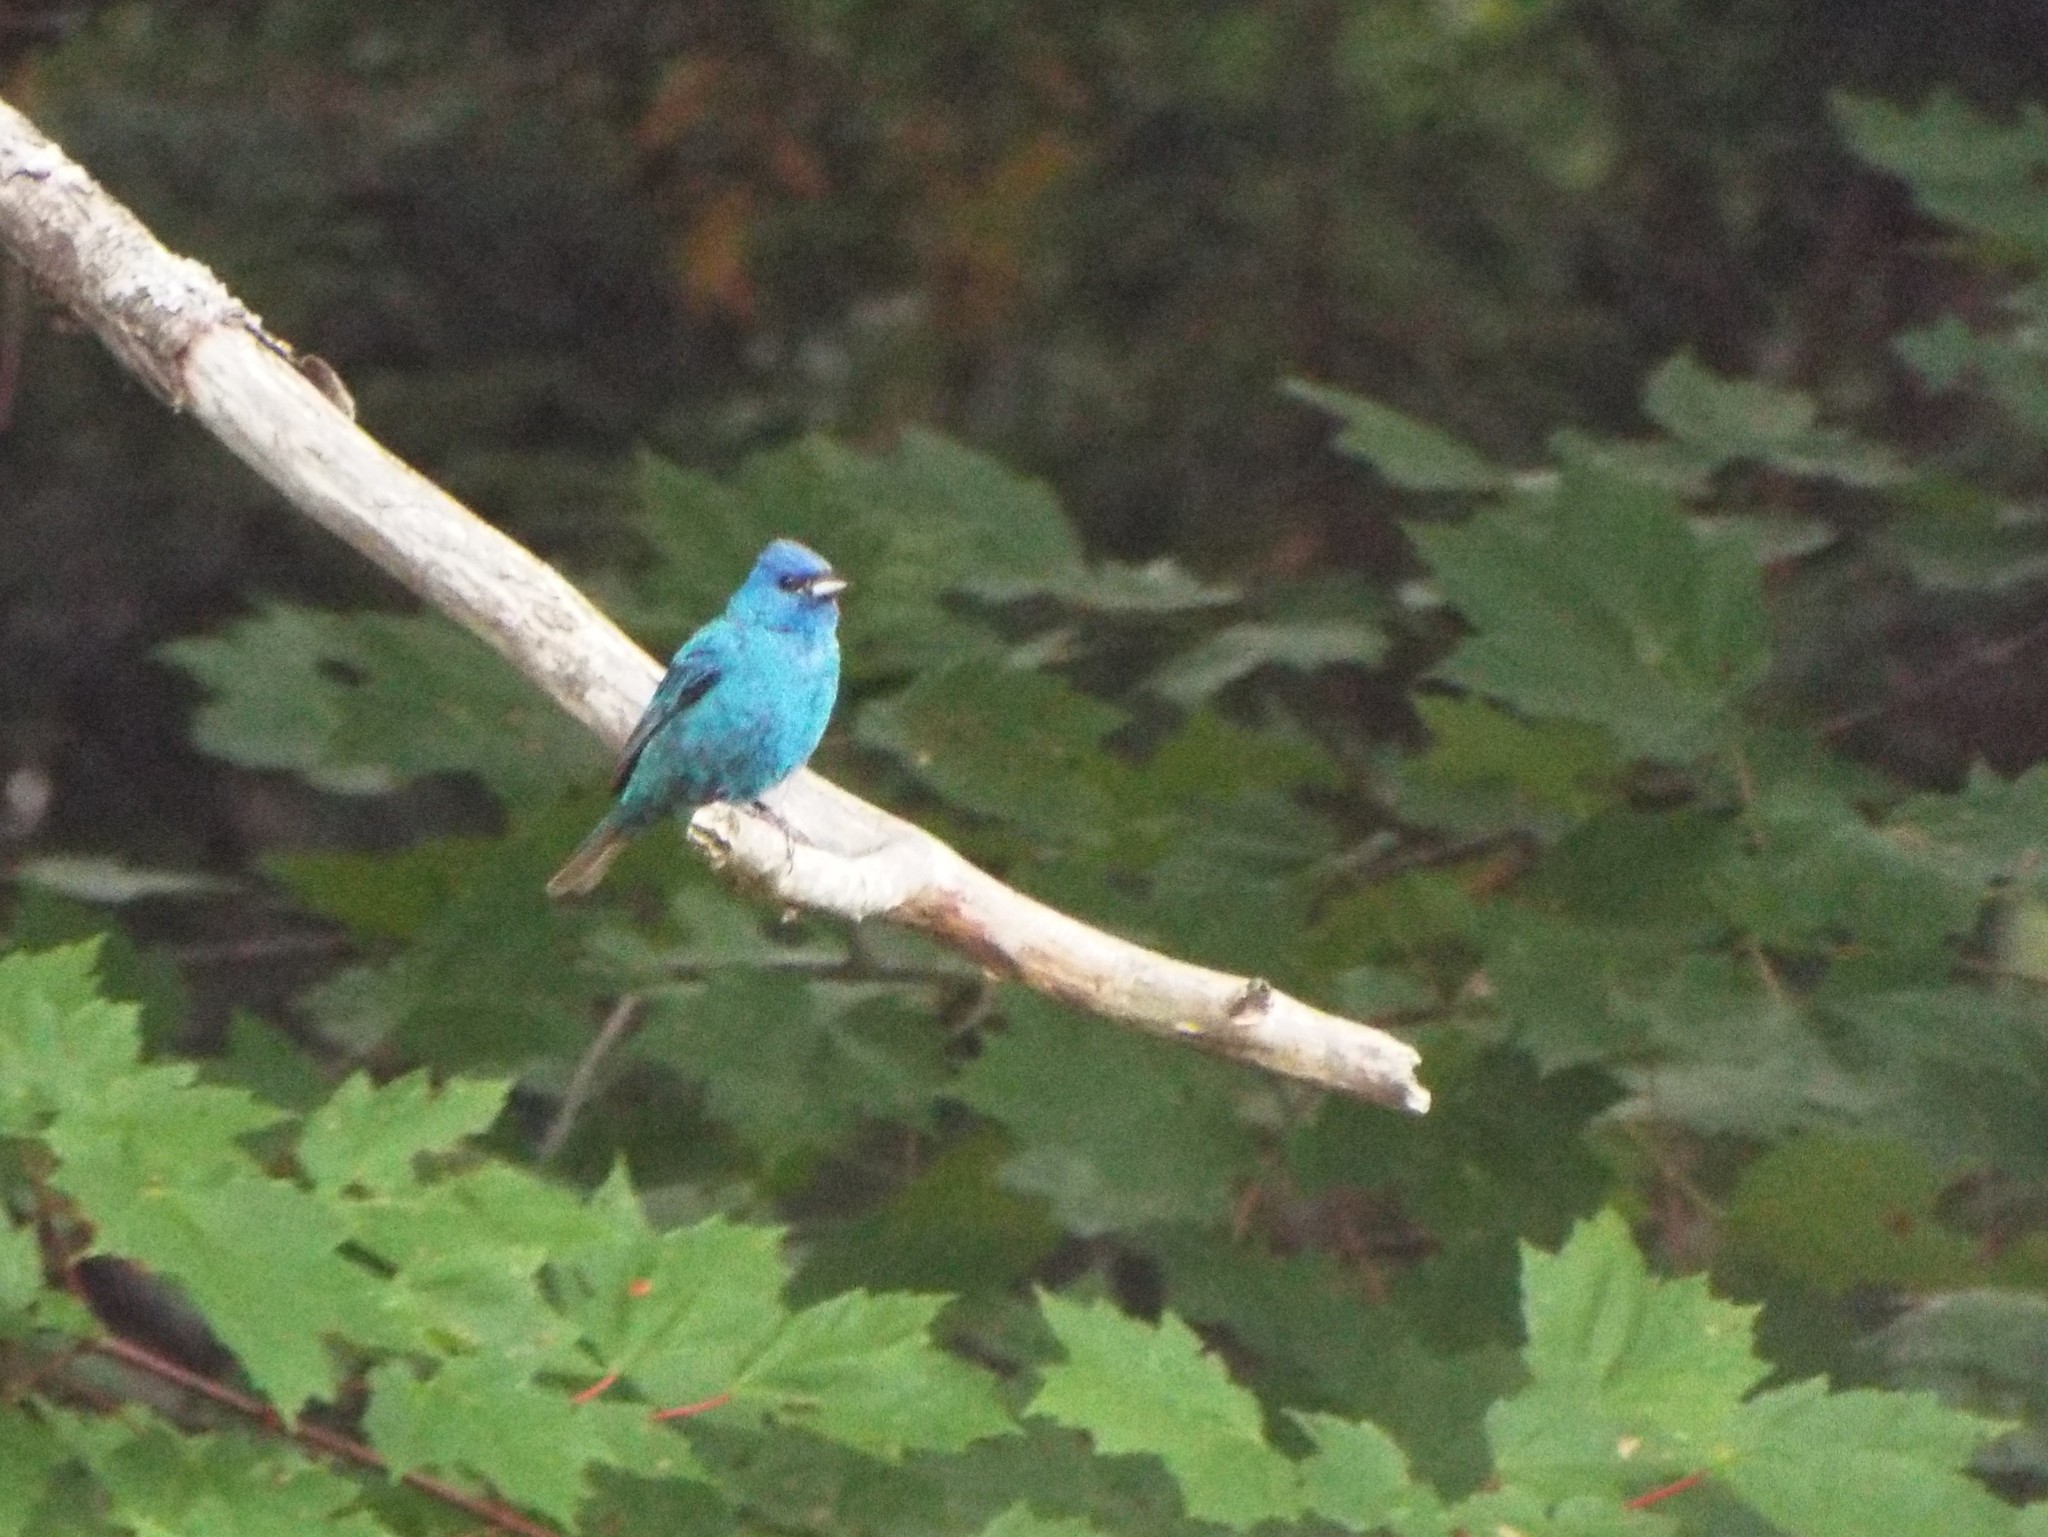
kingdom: Animalia
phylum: Chordata
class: Aves
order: Passeriformes
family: Cardinalidae
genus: Passerina
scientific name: Passerina cyanea
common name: Indigo bunting
